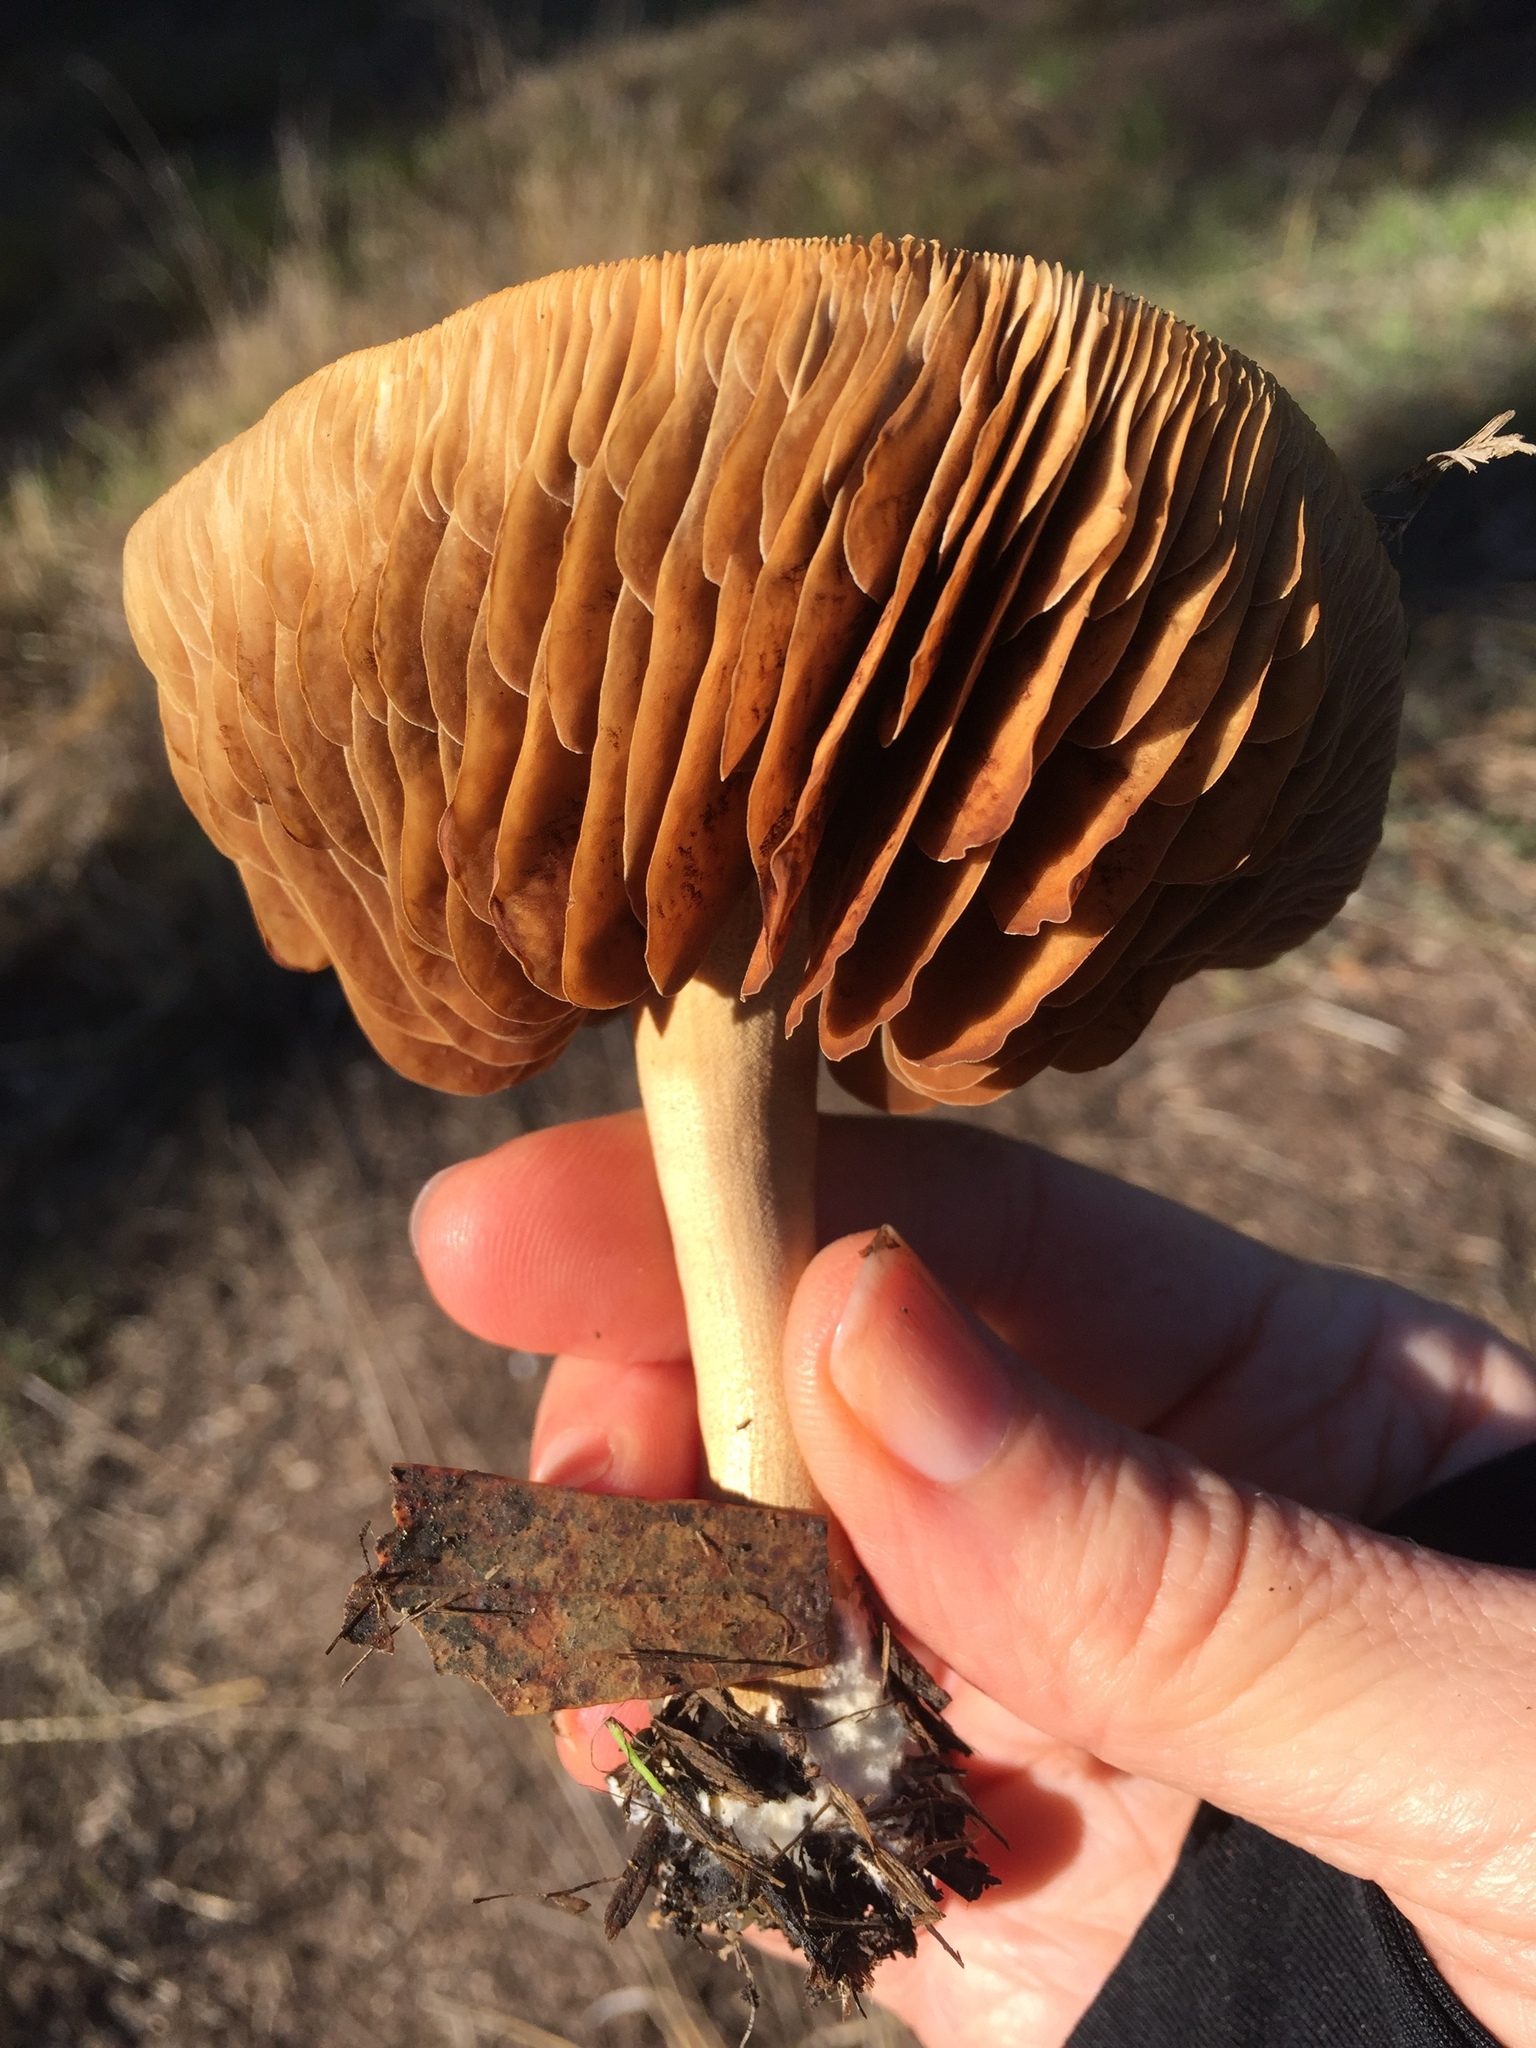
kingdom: Fungi
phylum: Basidiomycota
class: Agaricomycetes
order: Agaricales
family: Strophariaceae
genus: Agrocybe
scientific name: Agrocybe putaminum
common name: Mulch fieldcap
